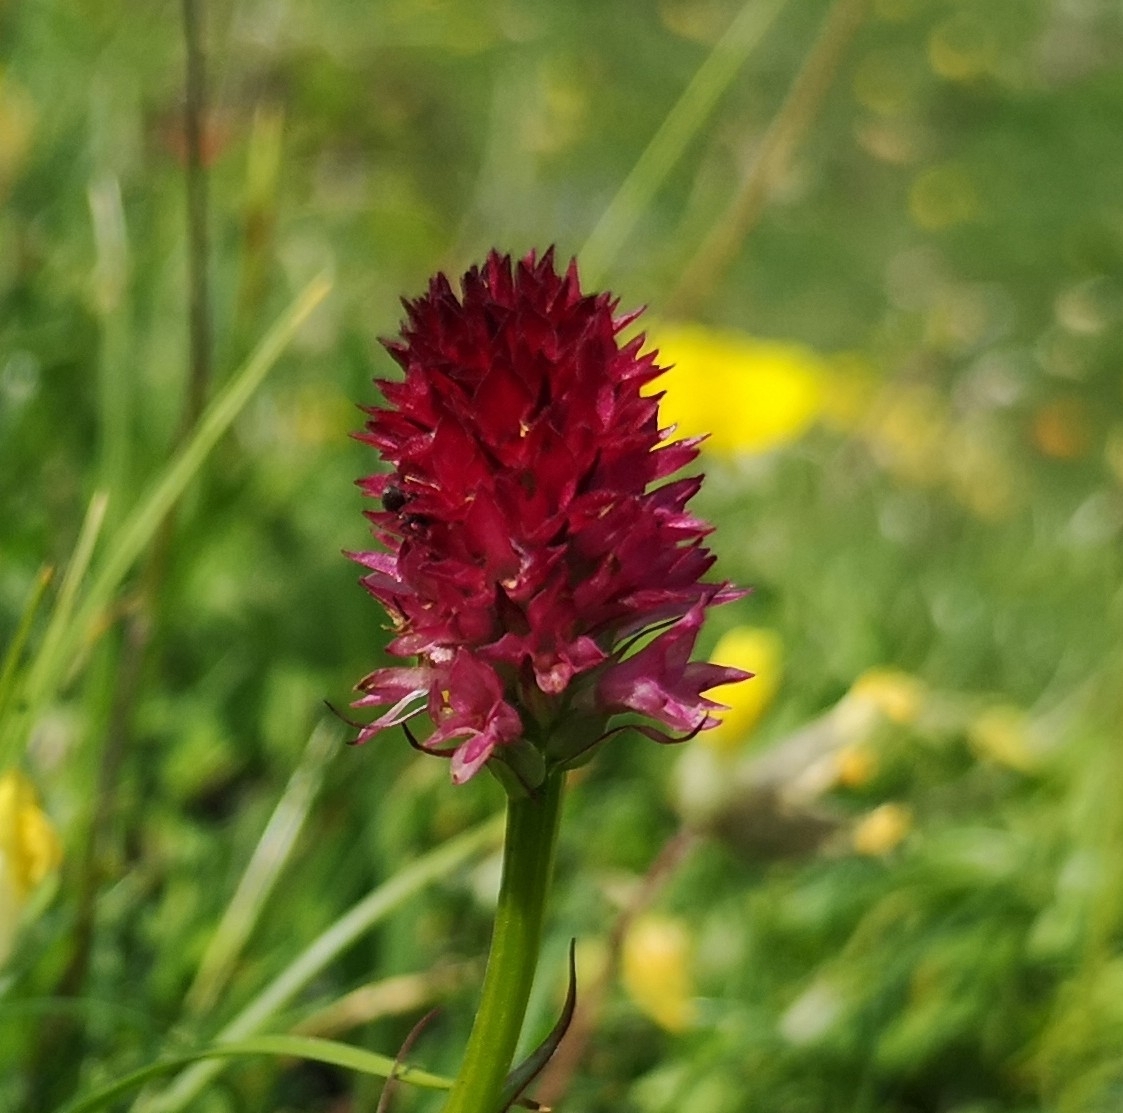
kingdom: Plantae
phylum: Tracheophyta
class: Liliopsida
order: Asparagales
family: Orchidaceae
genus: Gymnadenia
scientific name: Gymnadenia miniata
